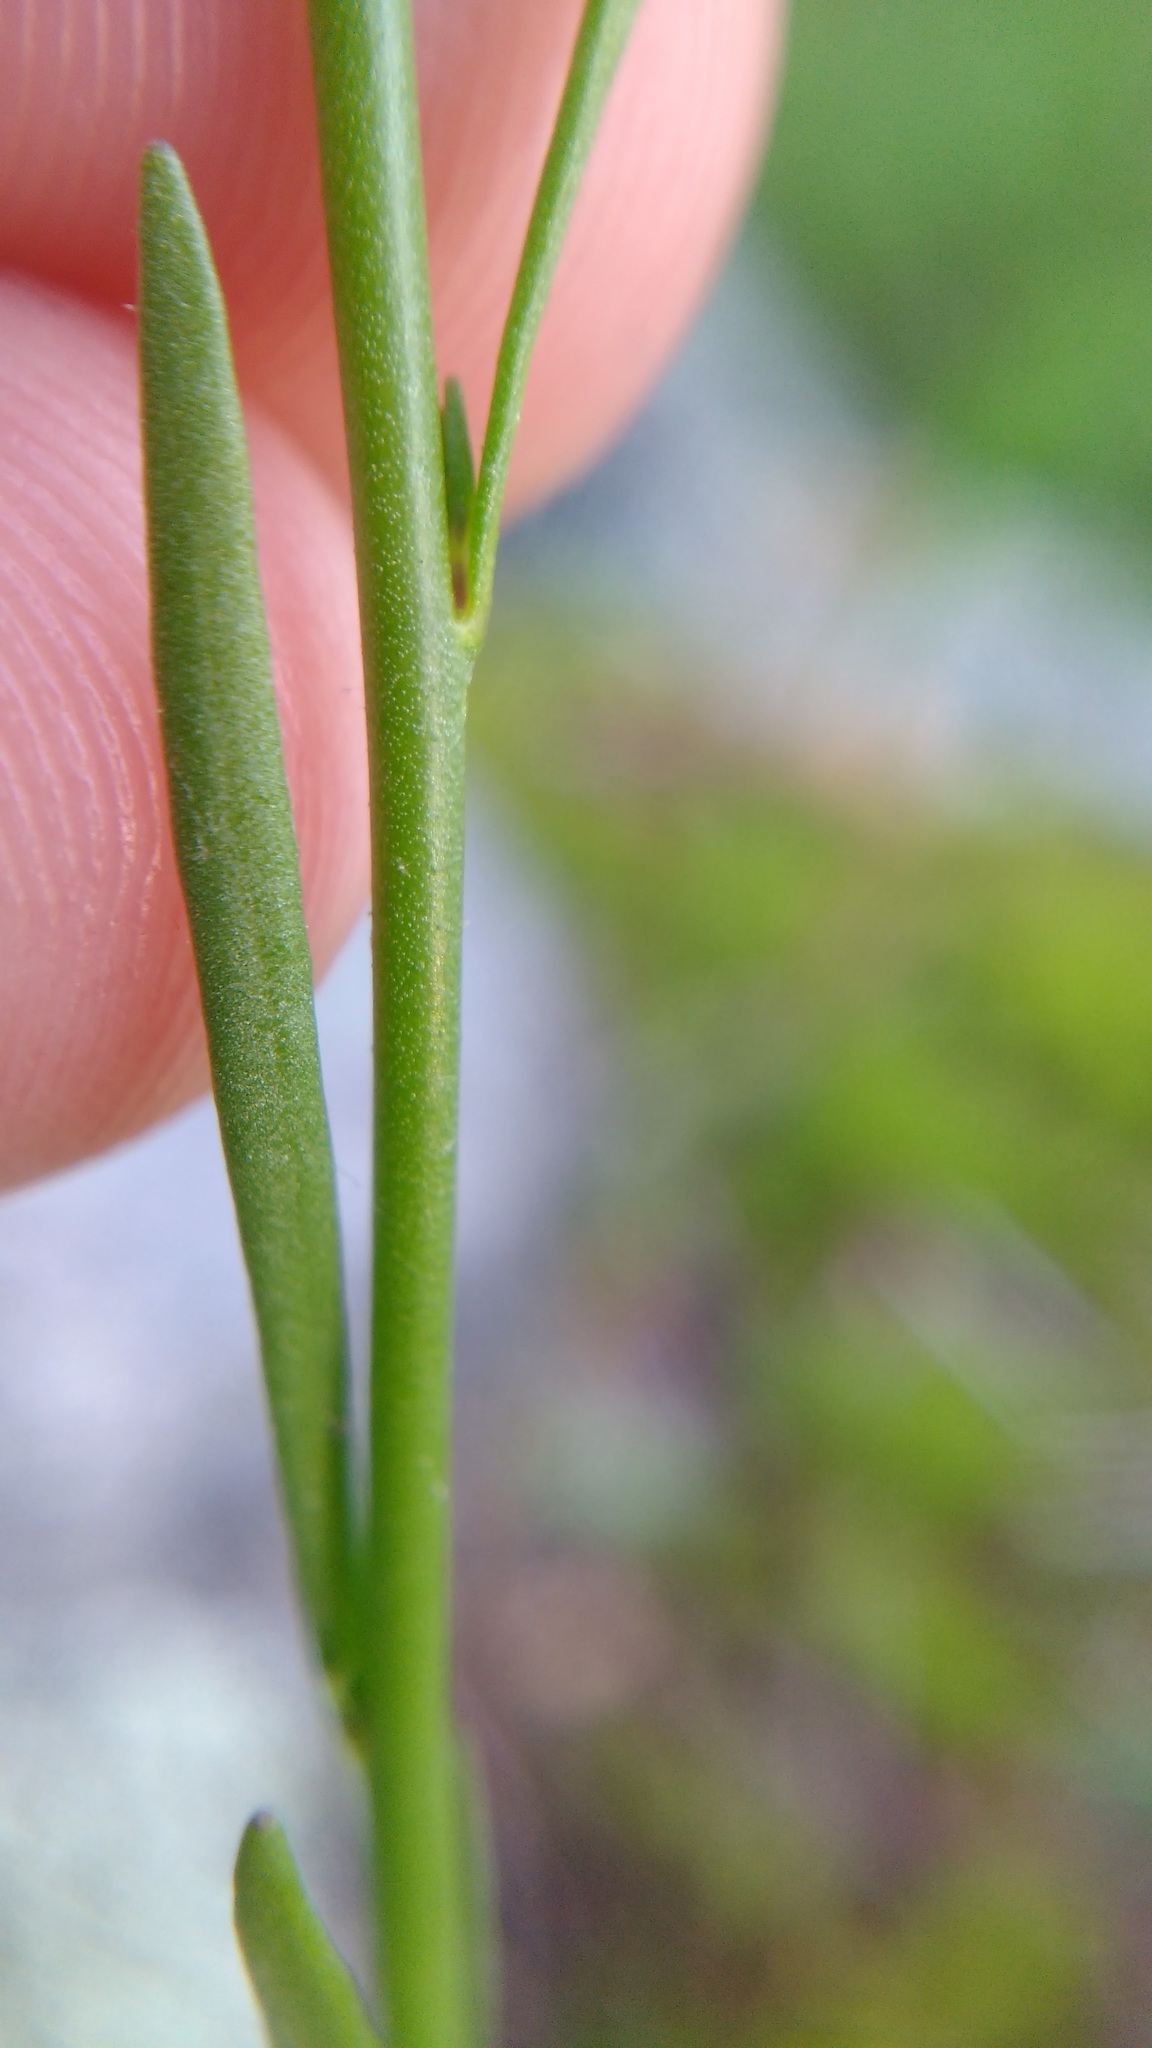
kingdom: Plantae
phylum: Tracheophyta
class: Magnoliopsida
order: Lamiales
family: Plantaginaceae
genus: Nuttallanthus
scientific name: Nuttallanthus canadensis
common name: Blue toadflax
